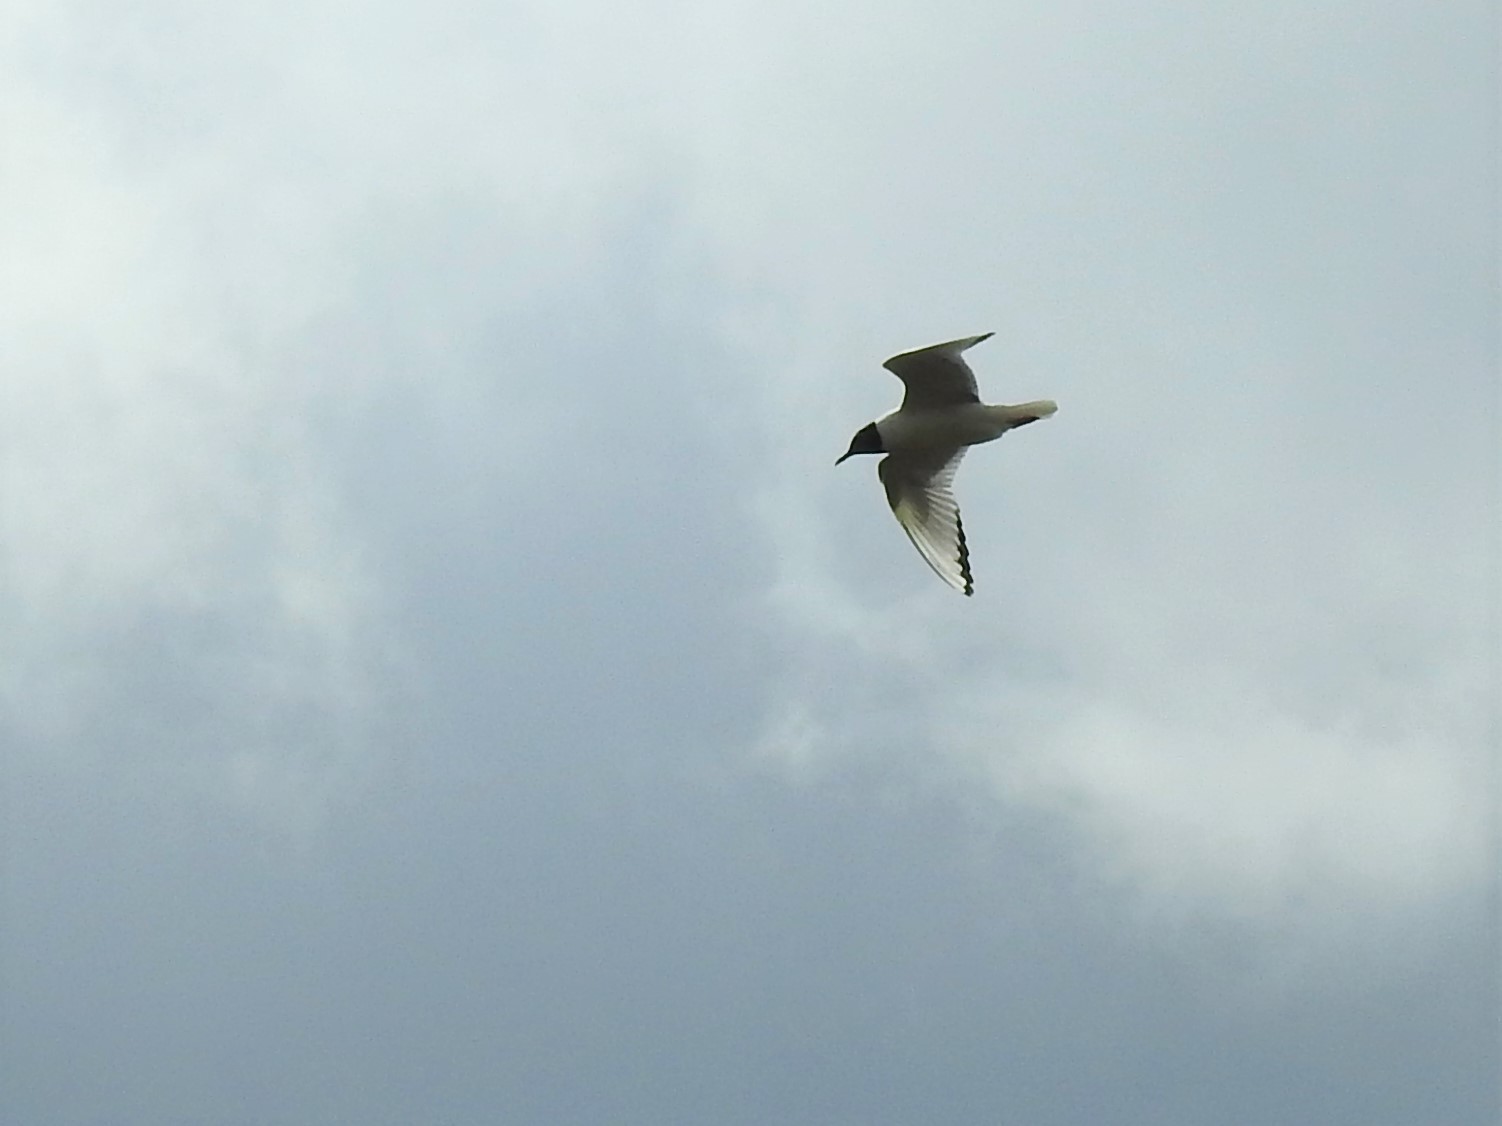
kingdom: Animalia
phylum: Chordata
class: Aves
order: Charadriiformes
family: Laridae
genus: Chroicocephalus
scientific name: Chroicocephalus philadelphia
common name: Bonaparte's gull
